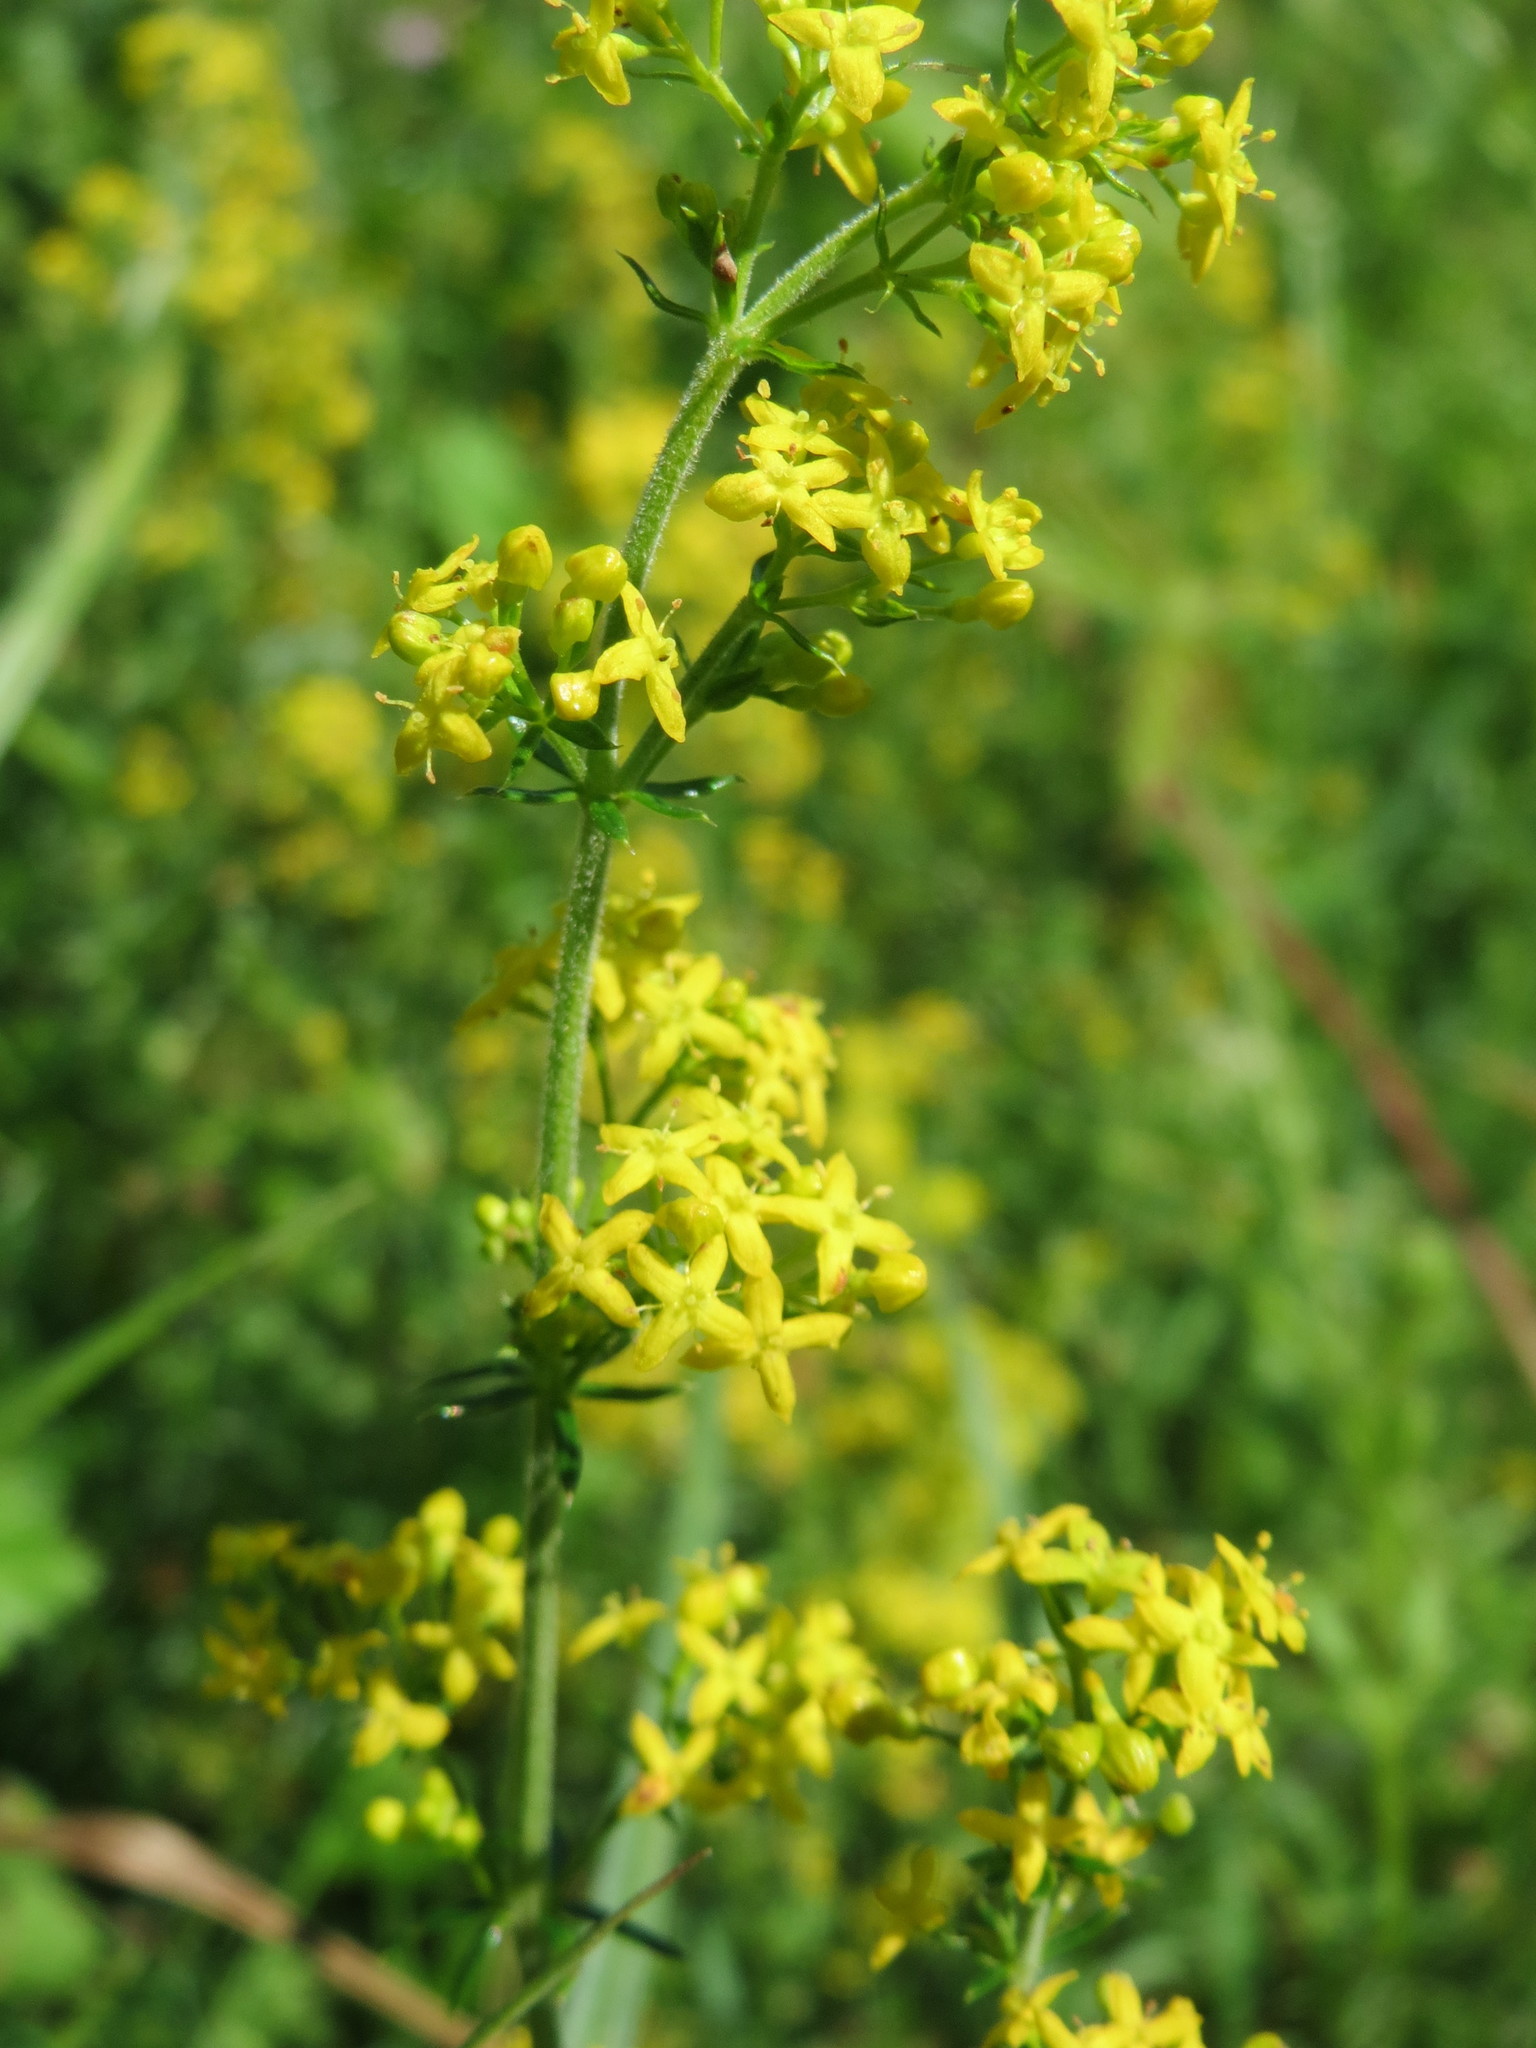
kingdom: Plantae
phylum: Tracheophyta
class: Magnoliopsida
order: Gentianales
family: Rubiaceae
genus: Galium
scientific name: Galium verum
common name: Lady's bedstraw
